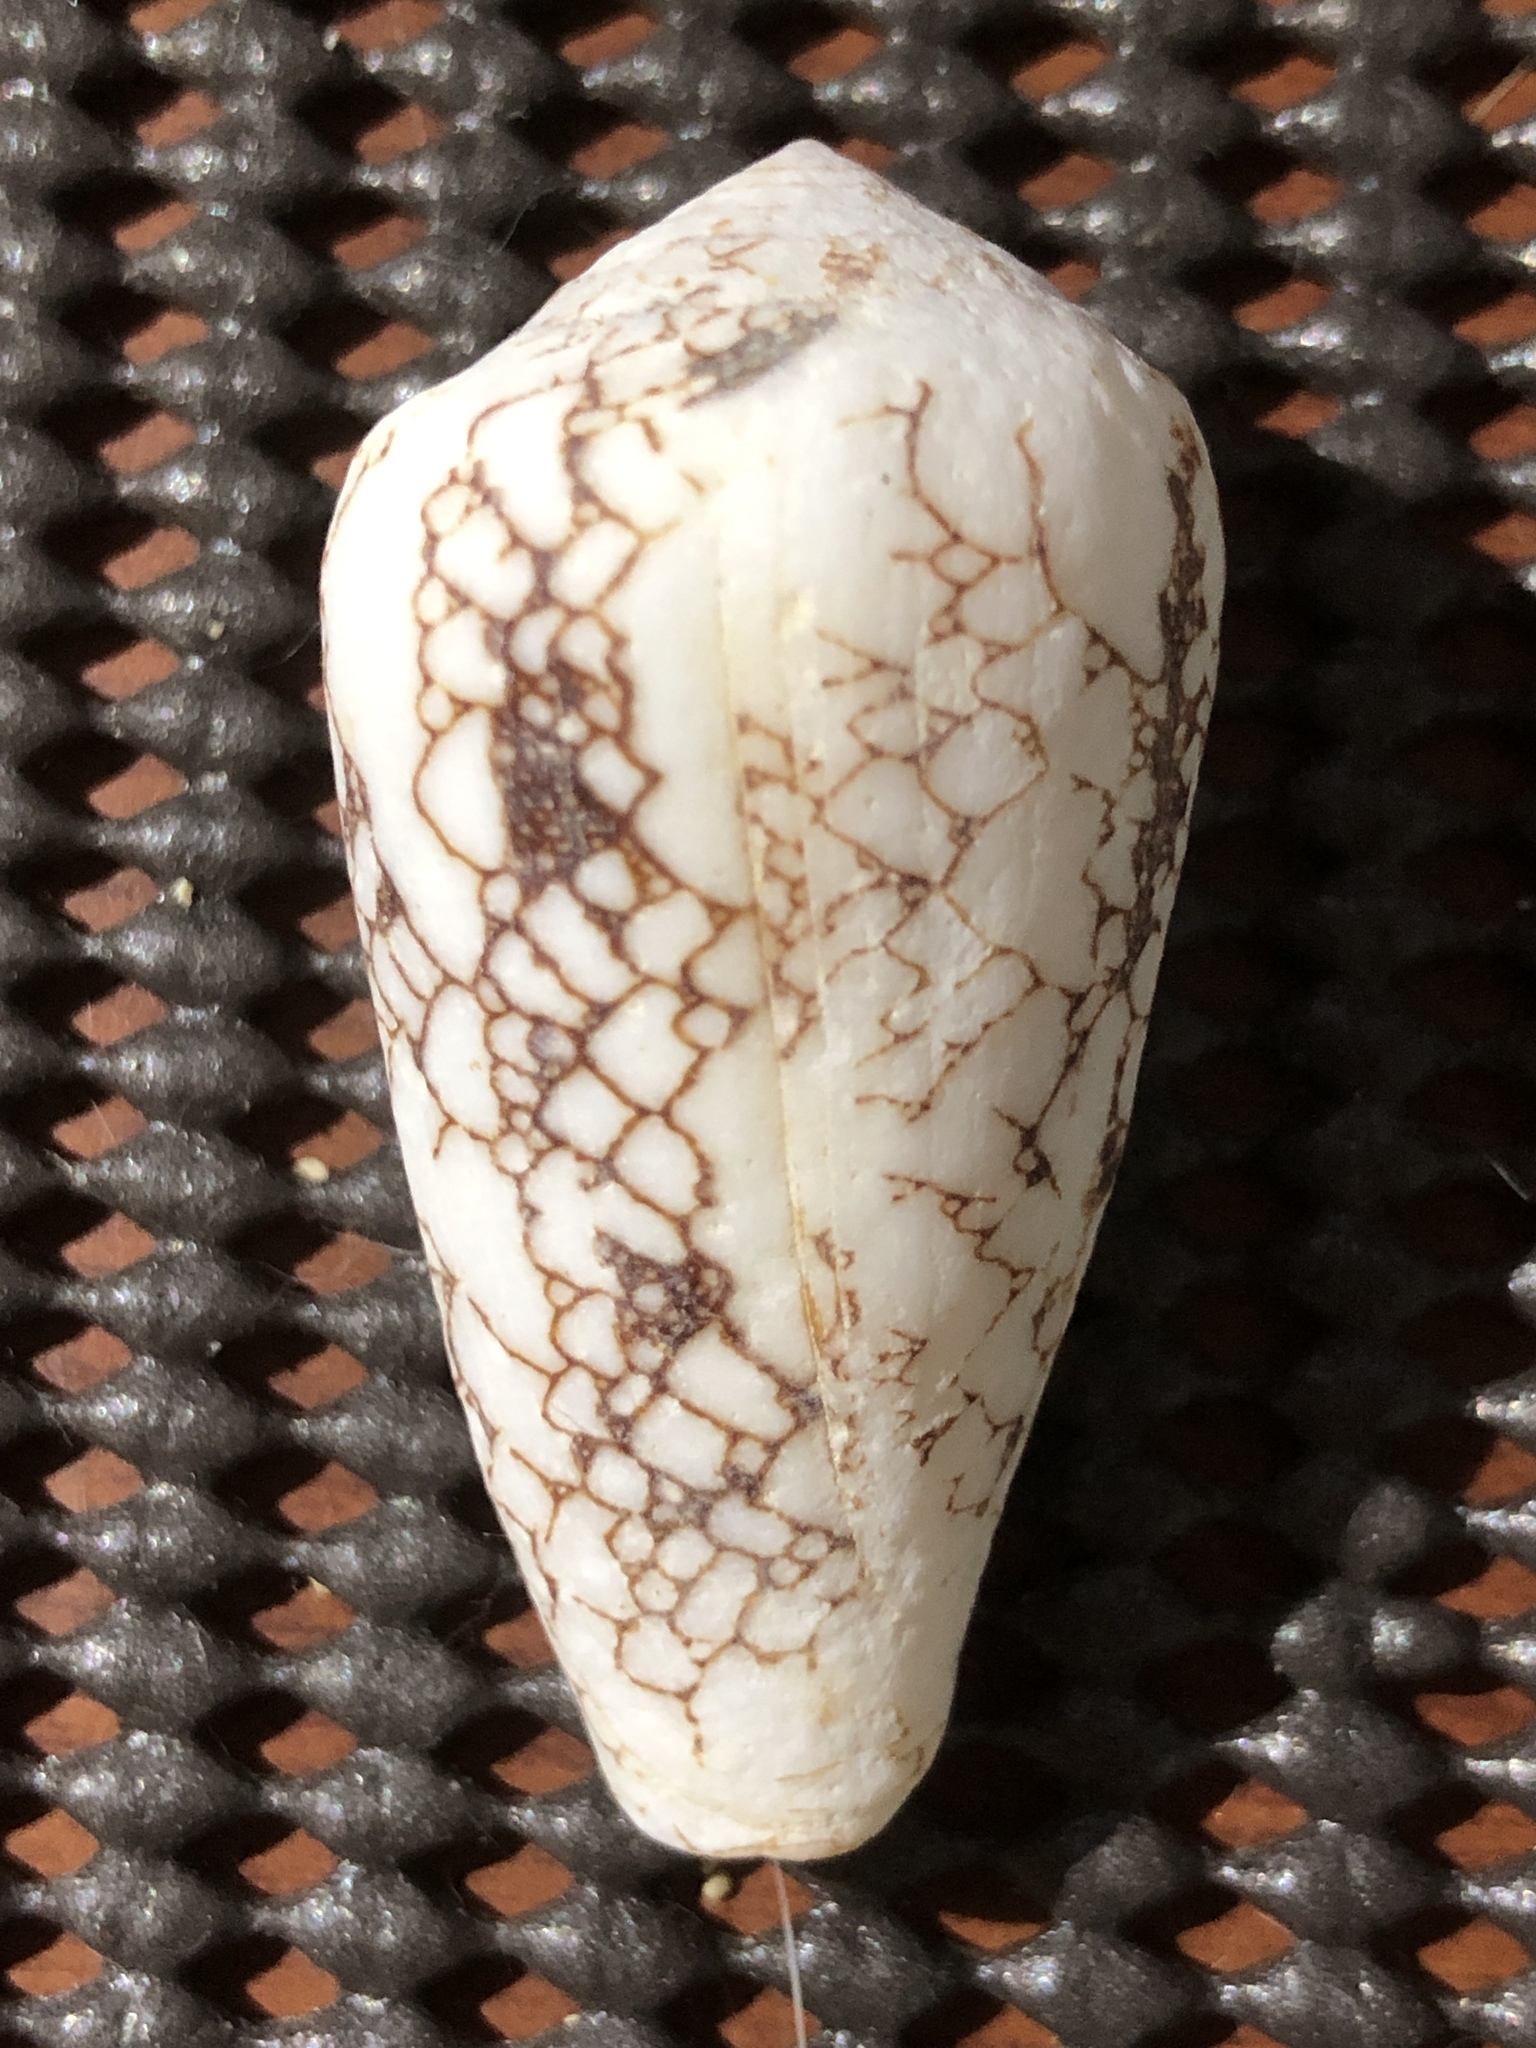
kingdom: Animalia
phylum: Mollusca
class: Gastropoda
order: Neogastropoda
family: Conidae
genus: Conus
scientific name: Conus omaria
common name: Omaria cone
